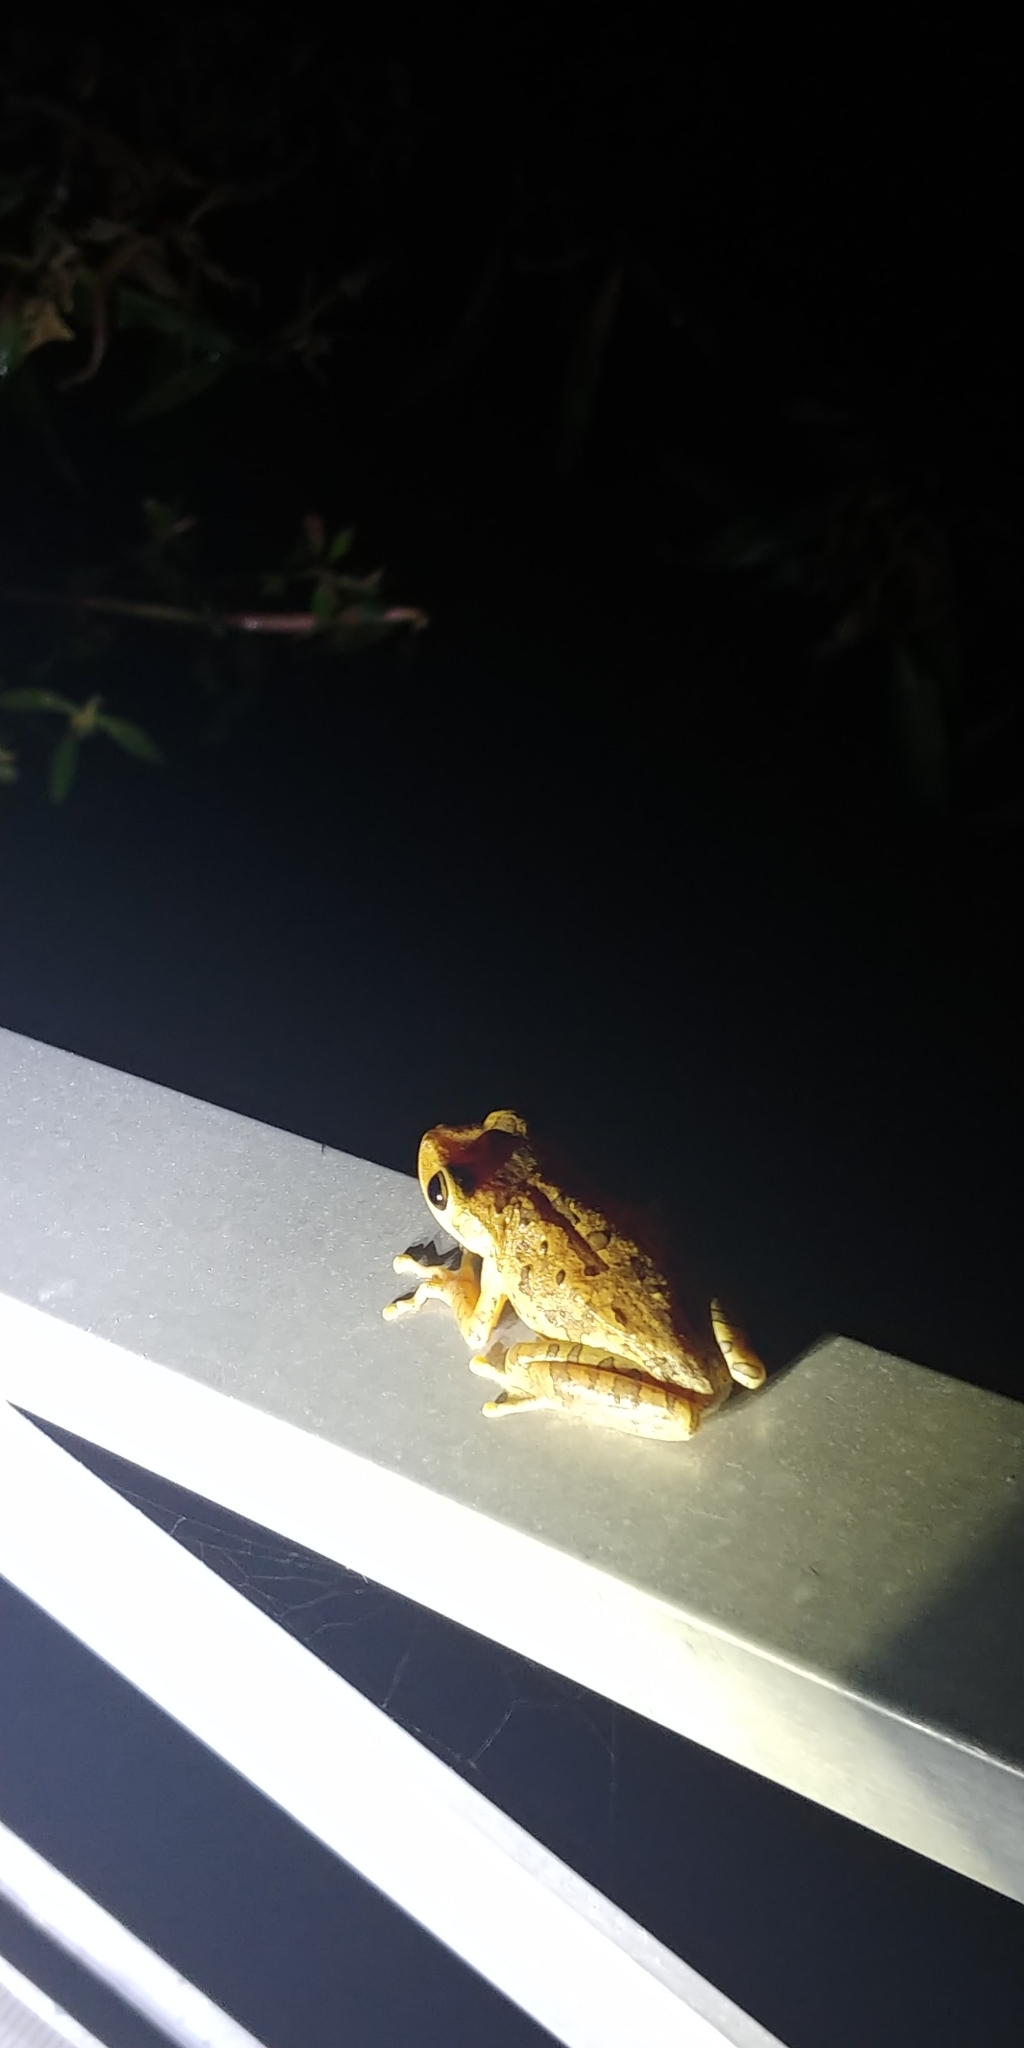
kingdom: Animalia
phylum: Chordata
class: Amphibia
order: Anura
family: Hylidae
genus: Osteopilus
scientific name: Osteopilus septentrionalis
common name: Cuban treefrog
